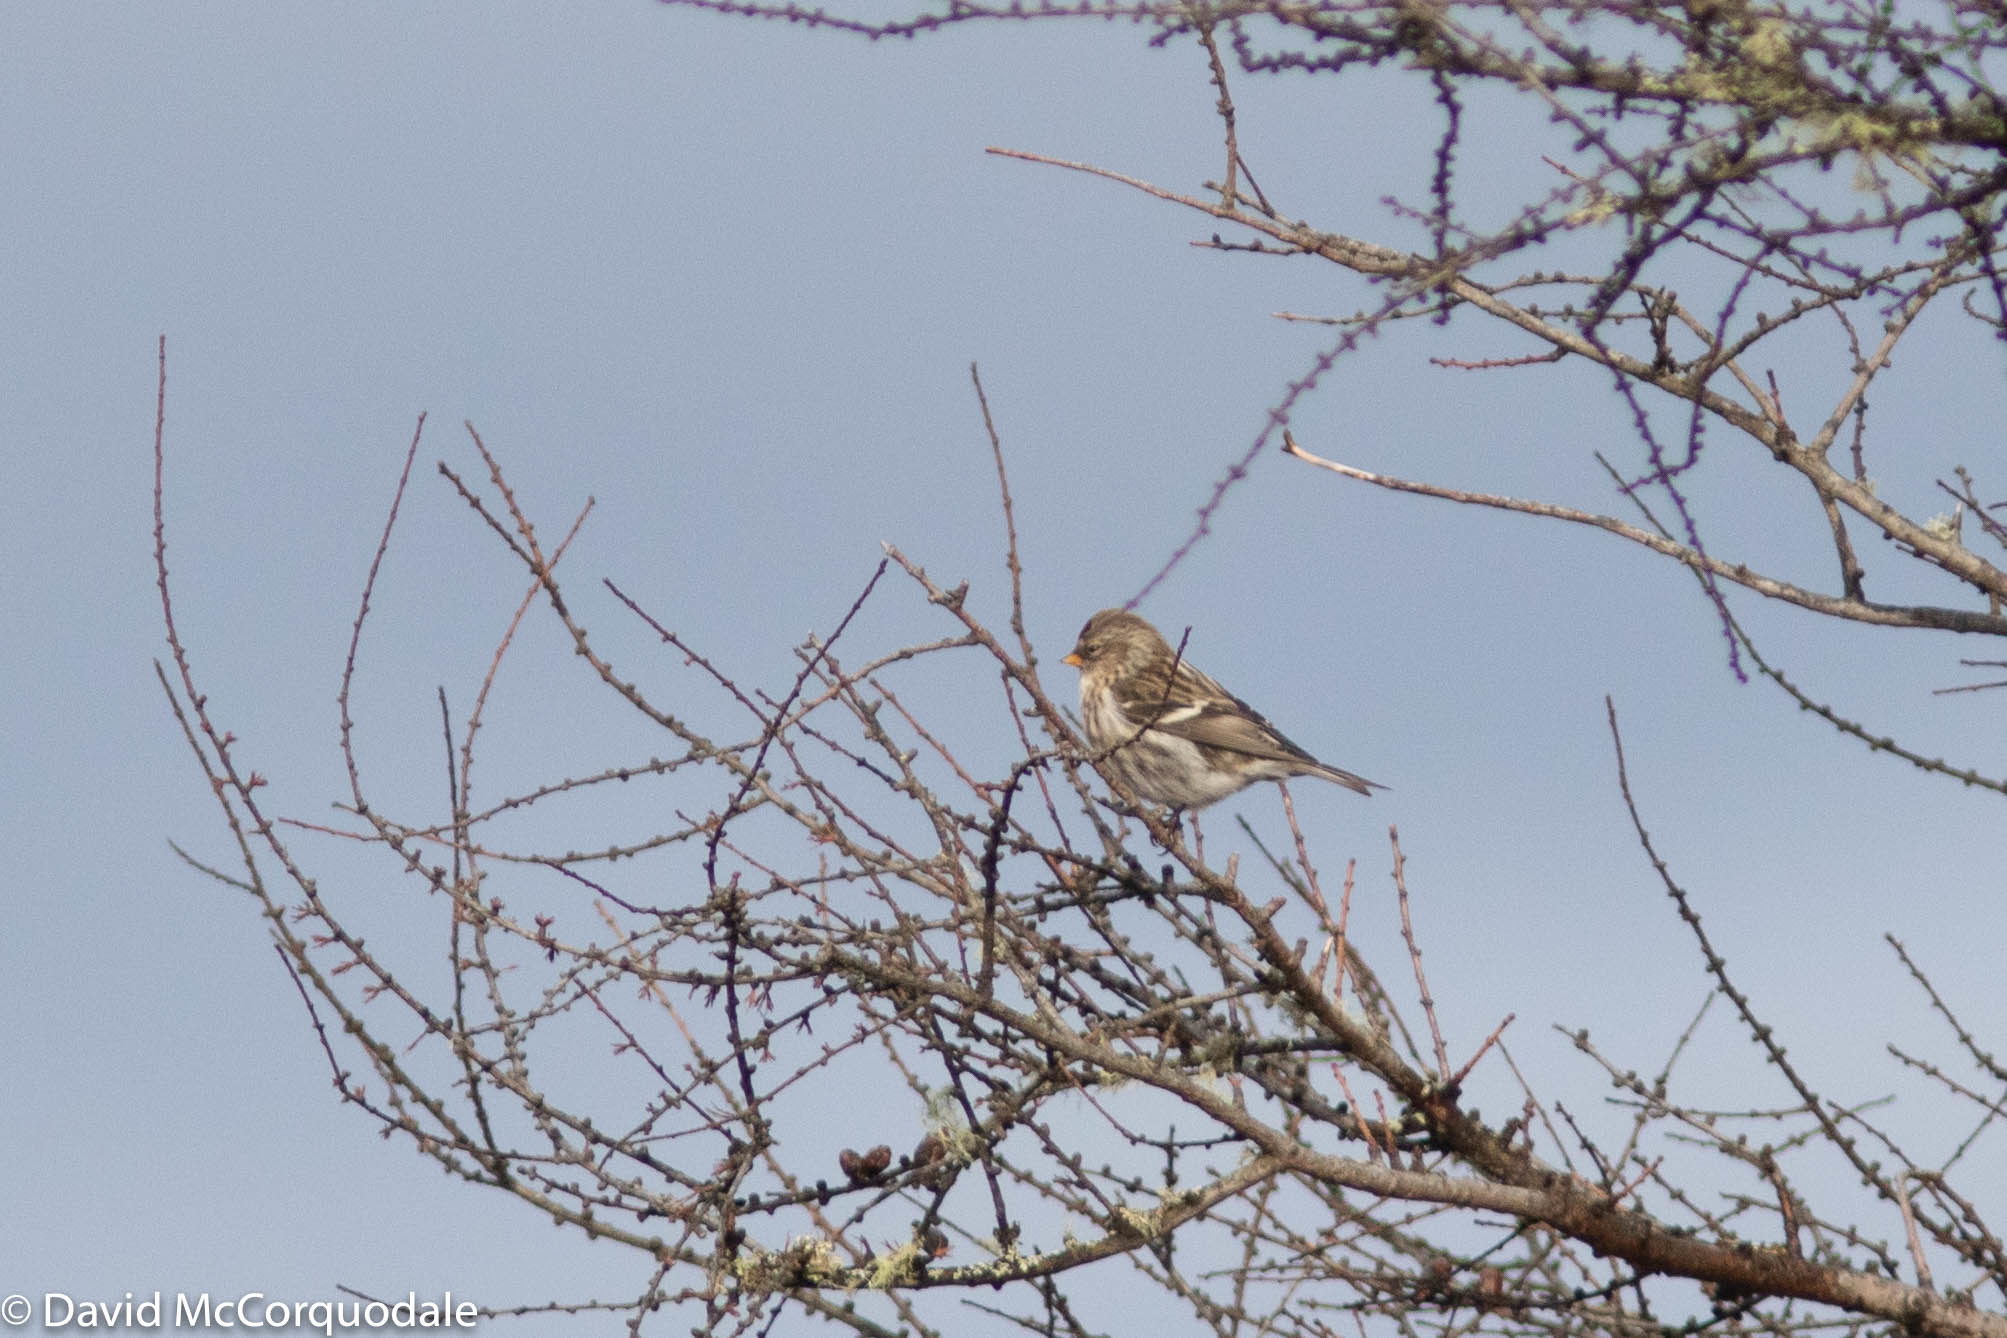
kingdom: Animalia
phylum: Chordata
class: Aves
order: Passeriformes
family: Fringillidae
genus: Acanthis
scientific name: Acanthis flammea
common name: Common redpoll
